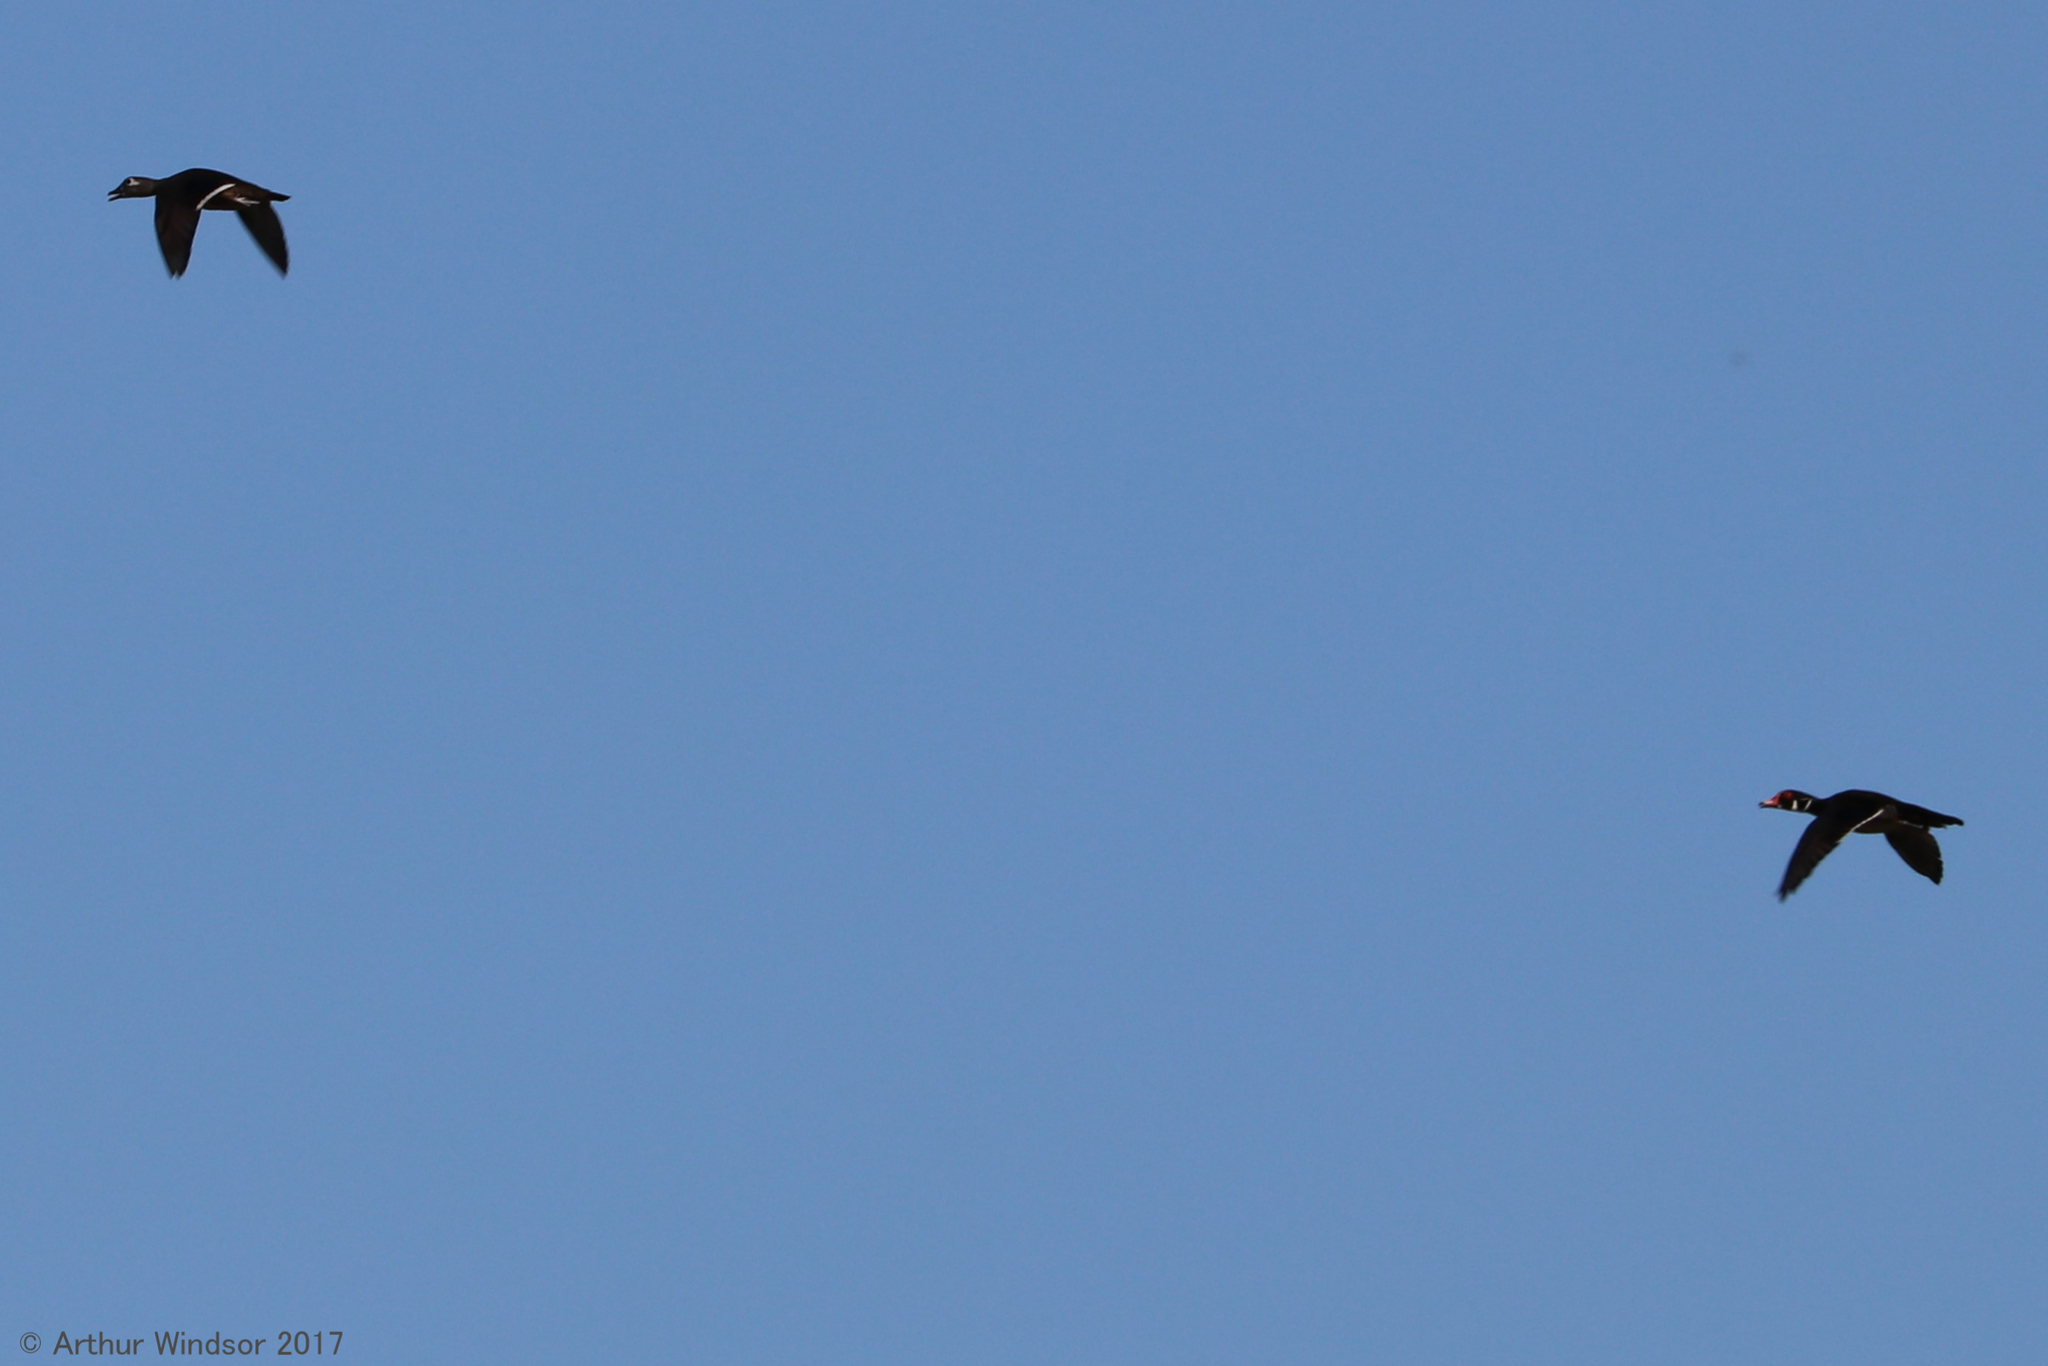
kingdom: Animalia
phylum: Chordata
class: Aves
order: Anseriformes
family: Anatidae
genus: Aix
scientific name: Aix sponsa
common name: Wood duck
